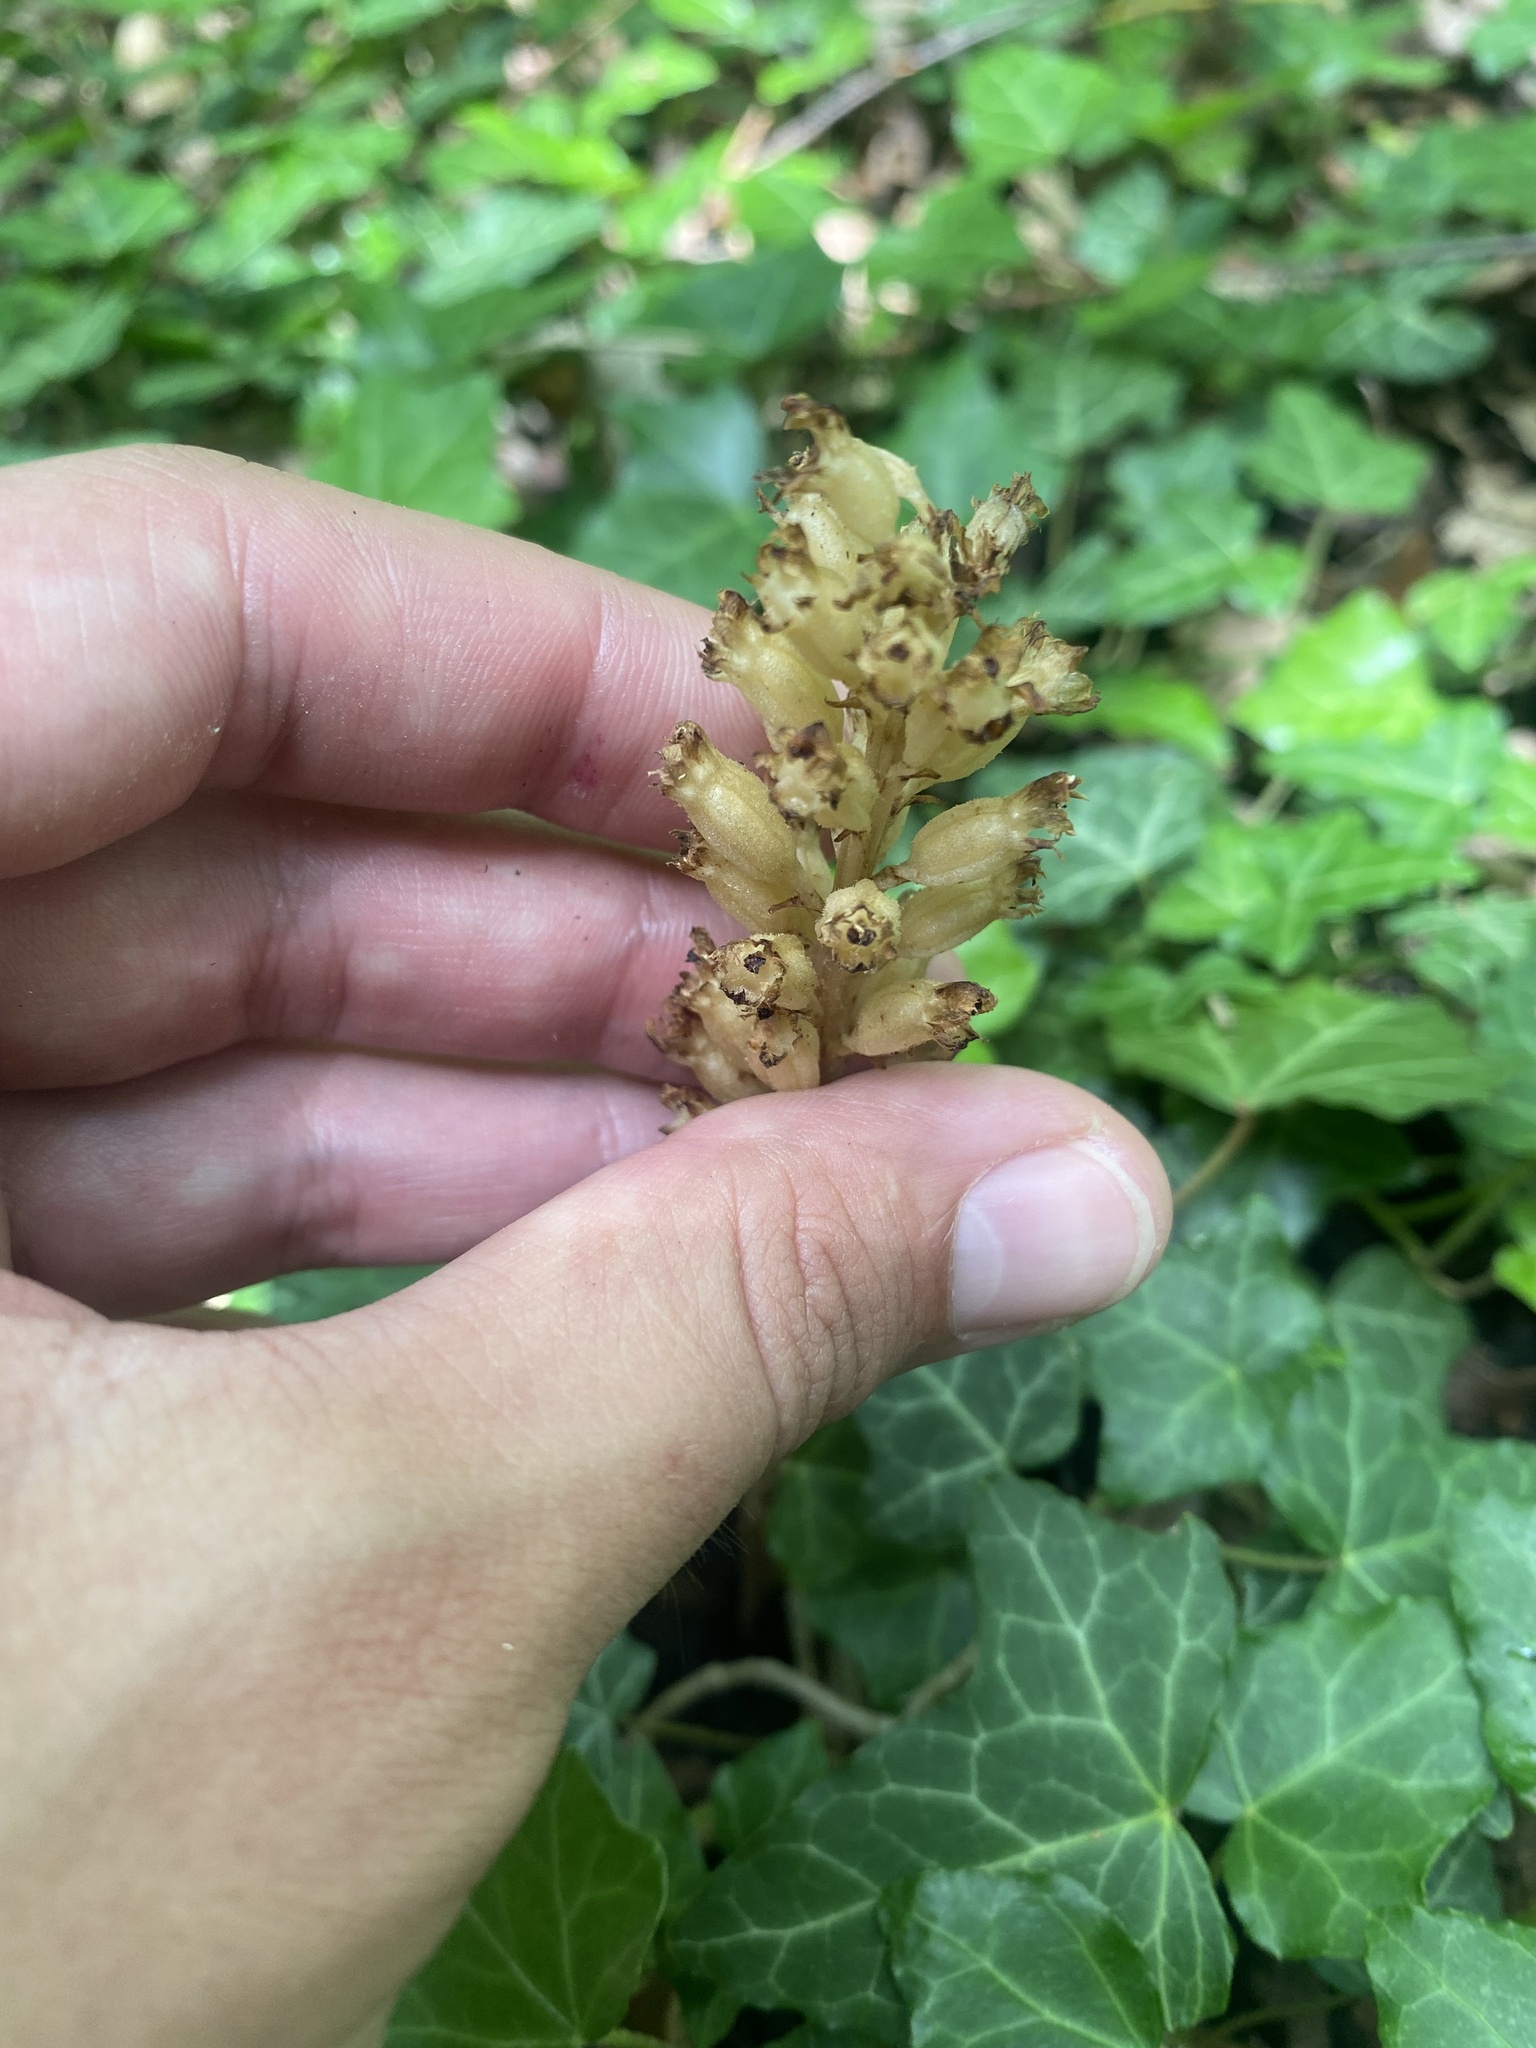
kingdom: Plantae
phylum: Tracheophyta
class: Liliopsida
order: Asparagales
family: Orchidaceae
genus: Neottia
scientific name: Neottia nidus-avis
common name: Bird's-nest orchid
